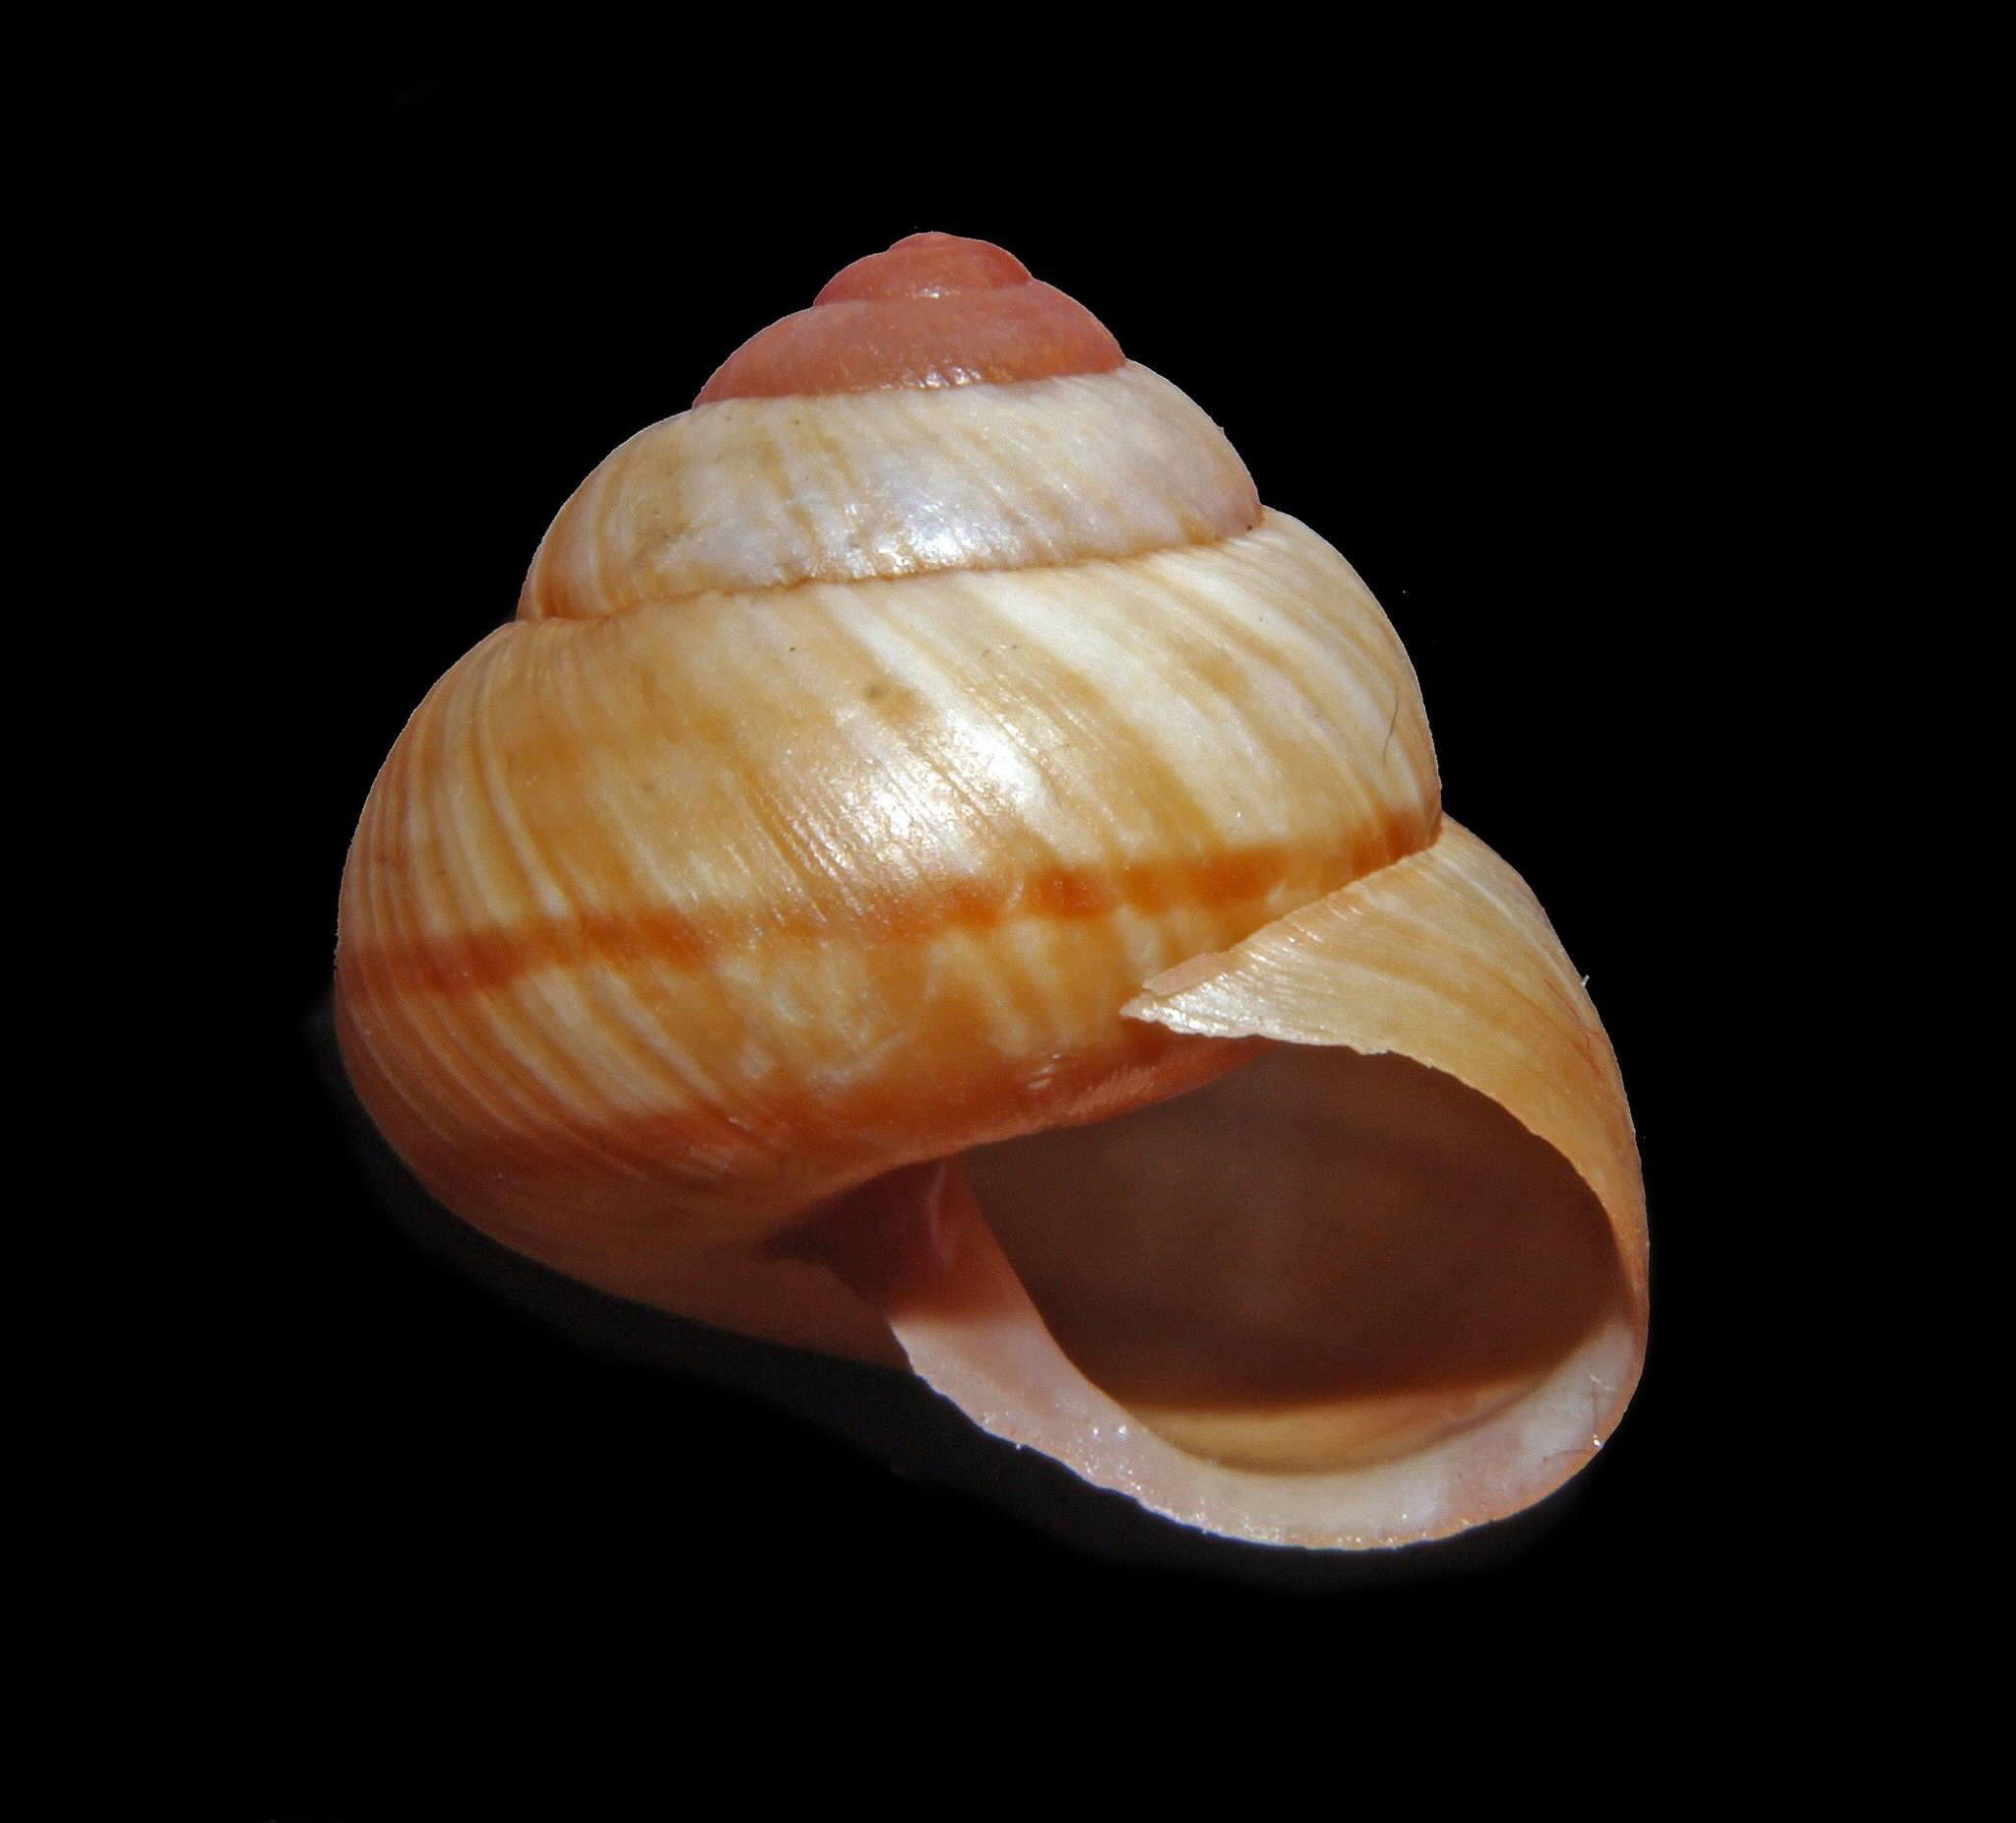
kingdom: Animalia
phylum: Mollusca
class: Gastropoda
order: Stylommatophora
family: Cepolidae
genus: Hemitrochus
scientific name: Hemitrochus varians
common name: Caribbean land snail
